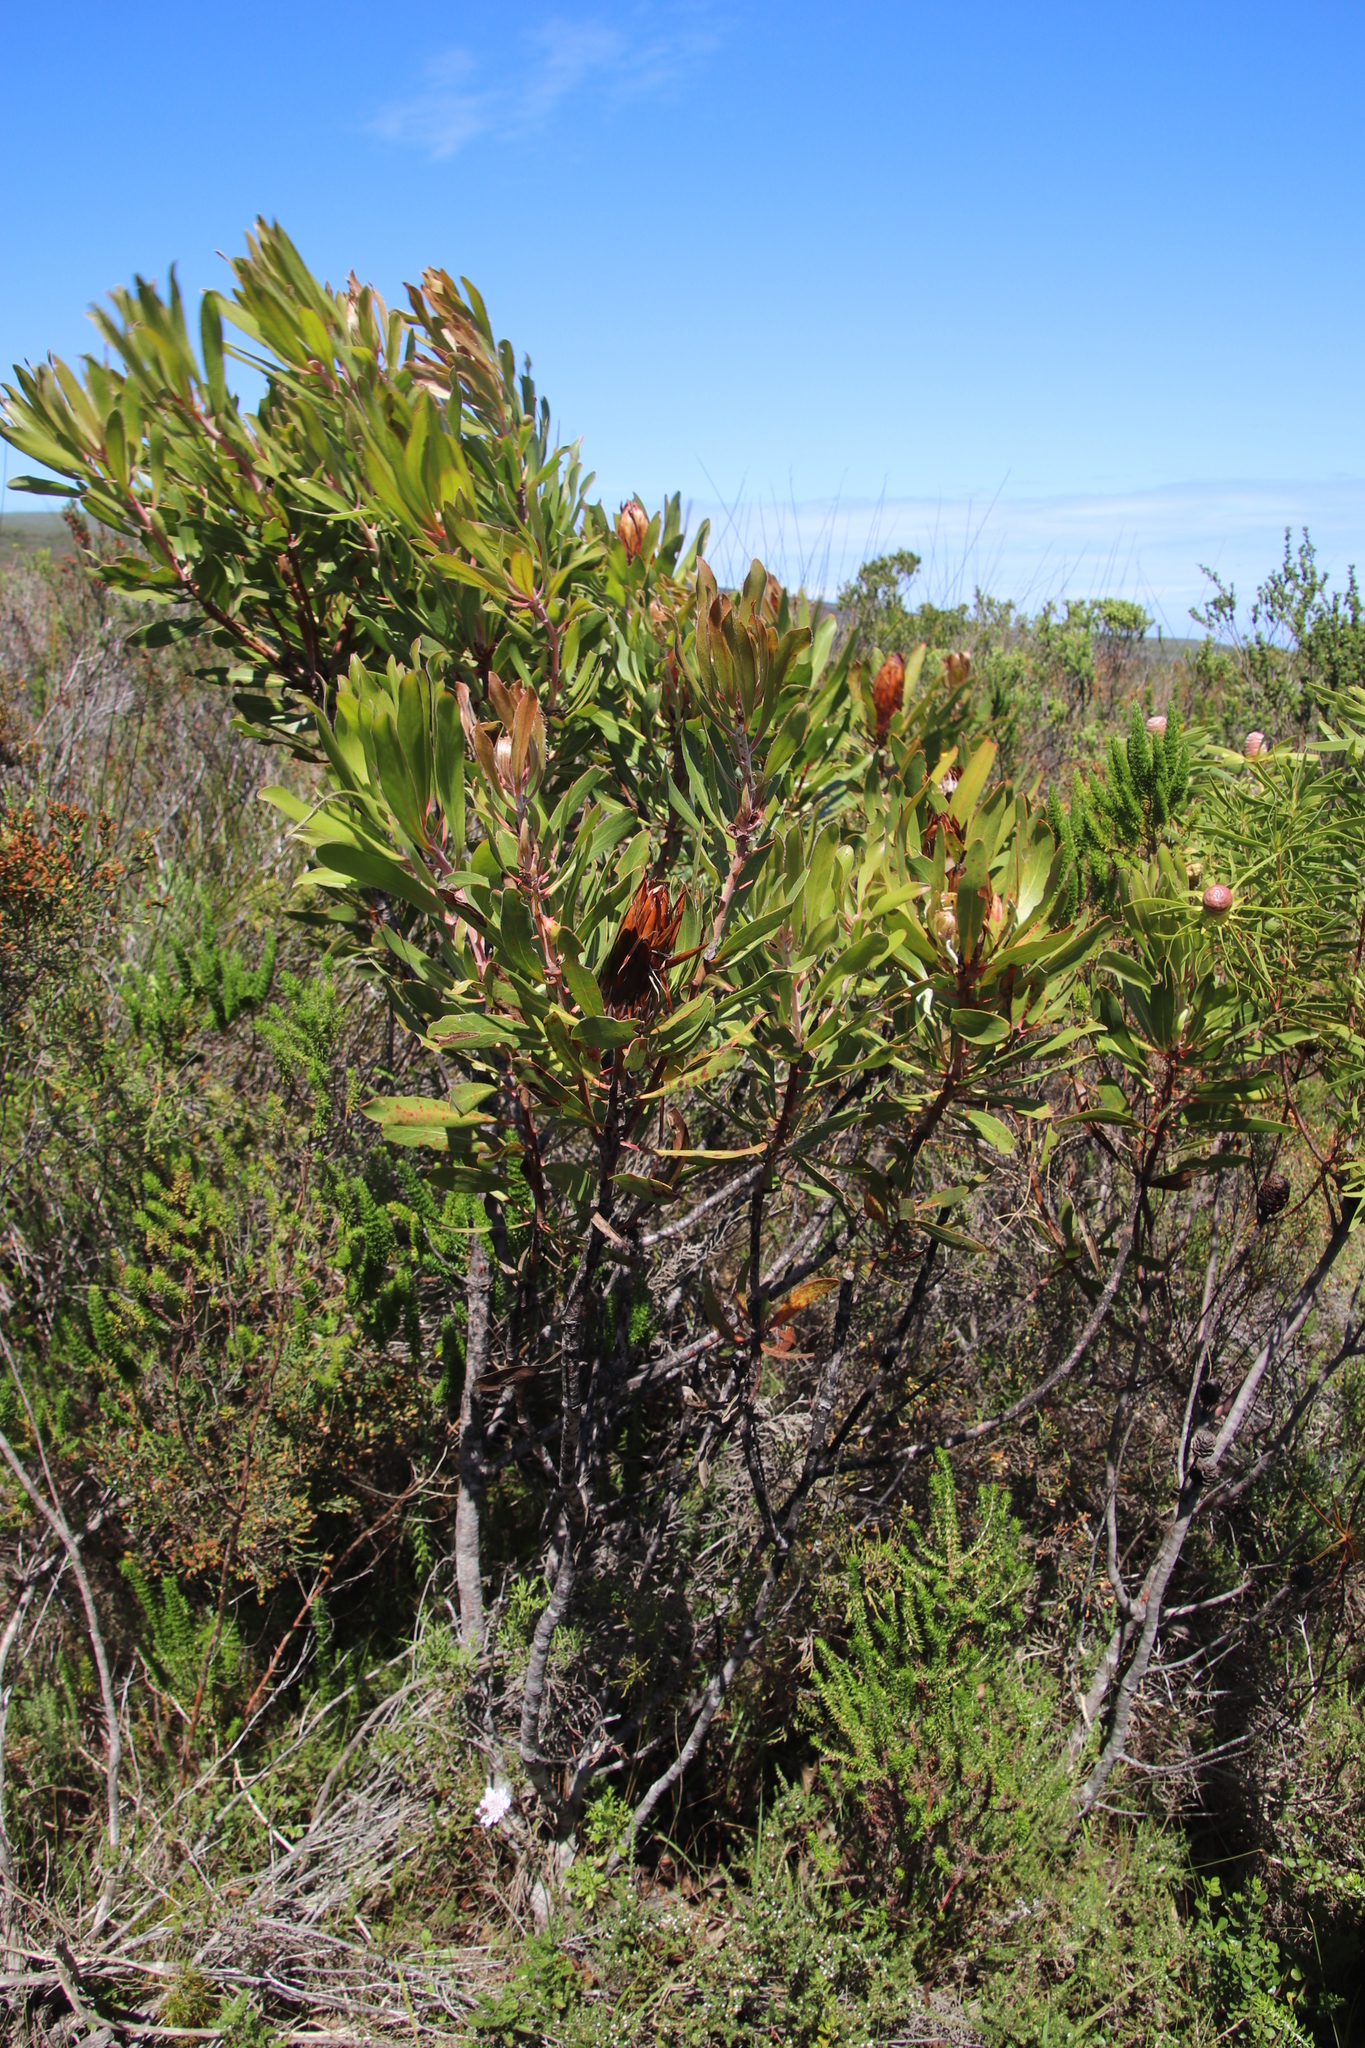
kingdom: Plantae
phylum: Tracheophyta
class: Magnoliopsida
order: Proteales
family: Proteaceae
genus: Protea
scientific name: Protea obtusifolia
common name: Bredasdorp sugarbush
